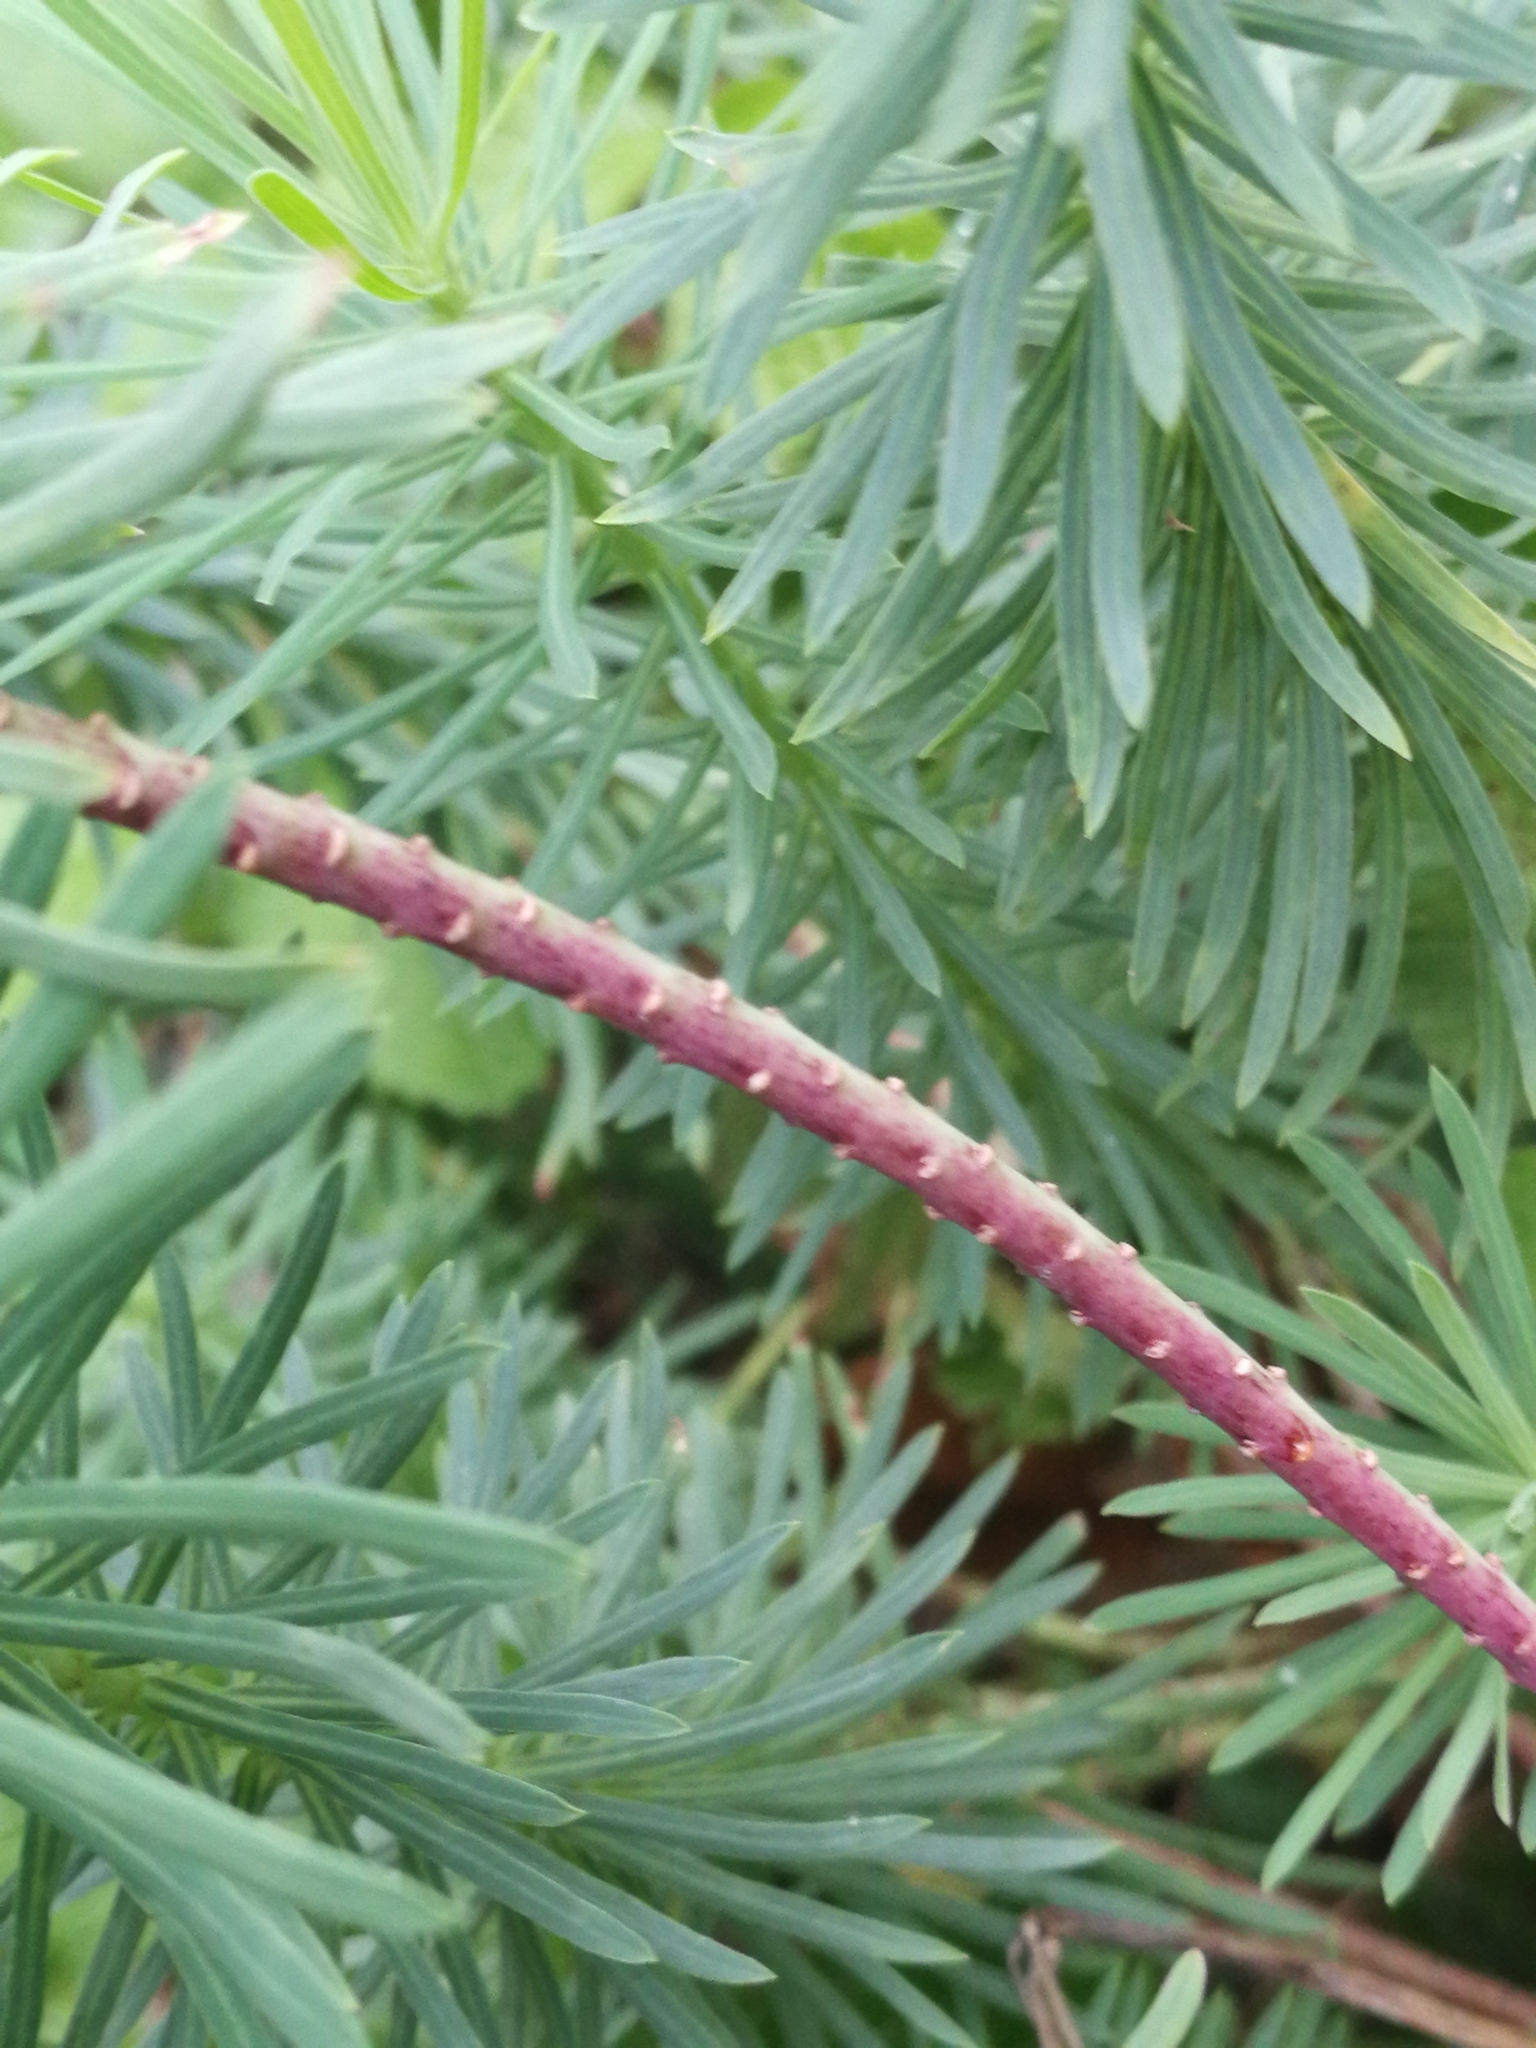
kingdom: Plantae
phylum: Tracheophyta
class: Magnoliopsida
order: Malpighiales
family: Euphorbiaceae
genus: Euphorbia
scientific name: Euphorbia cyparissias
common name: Cypress spurge
